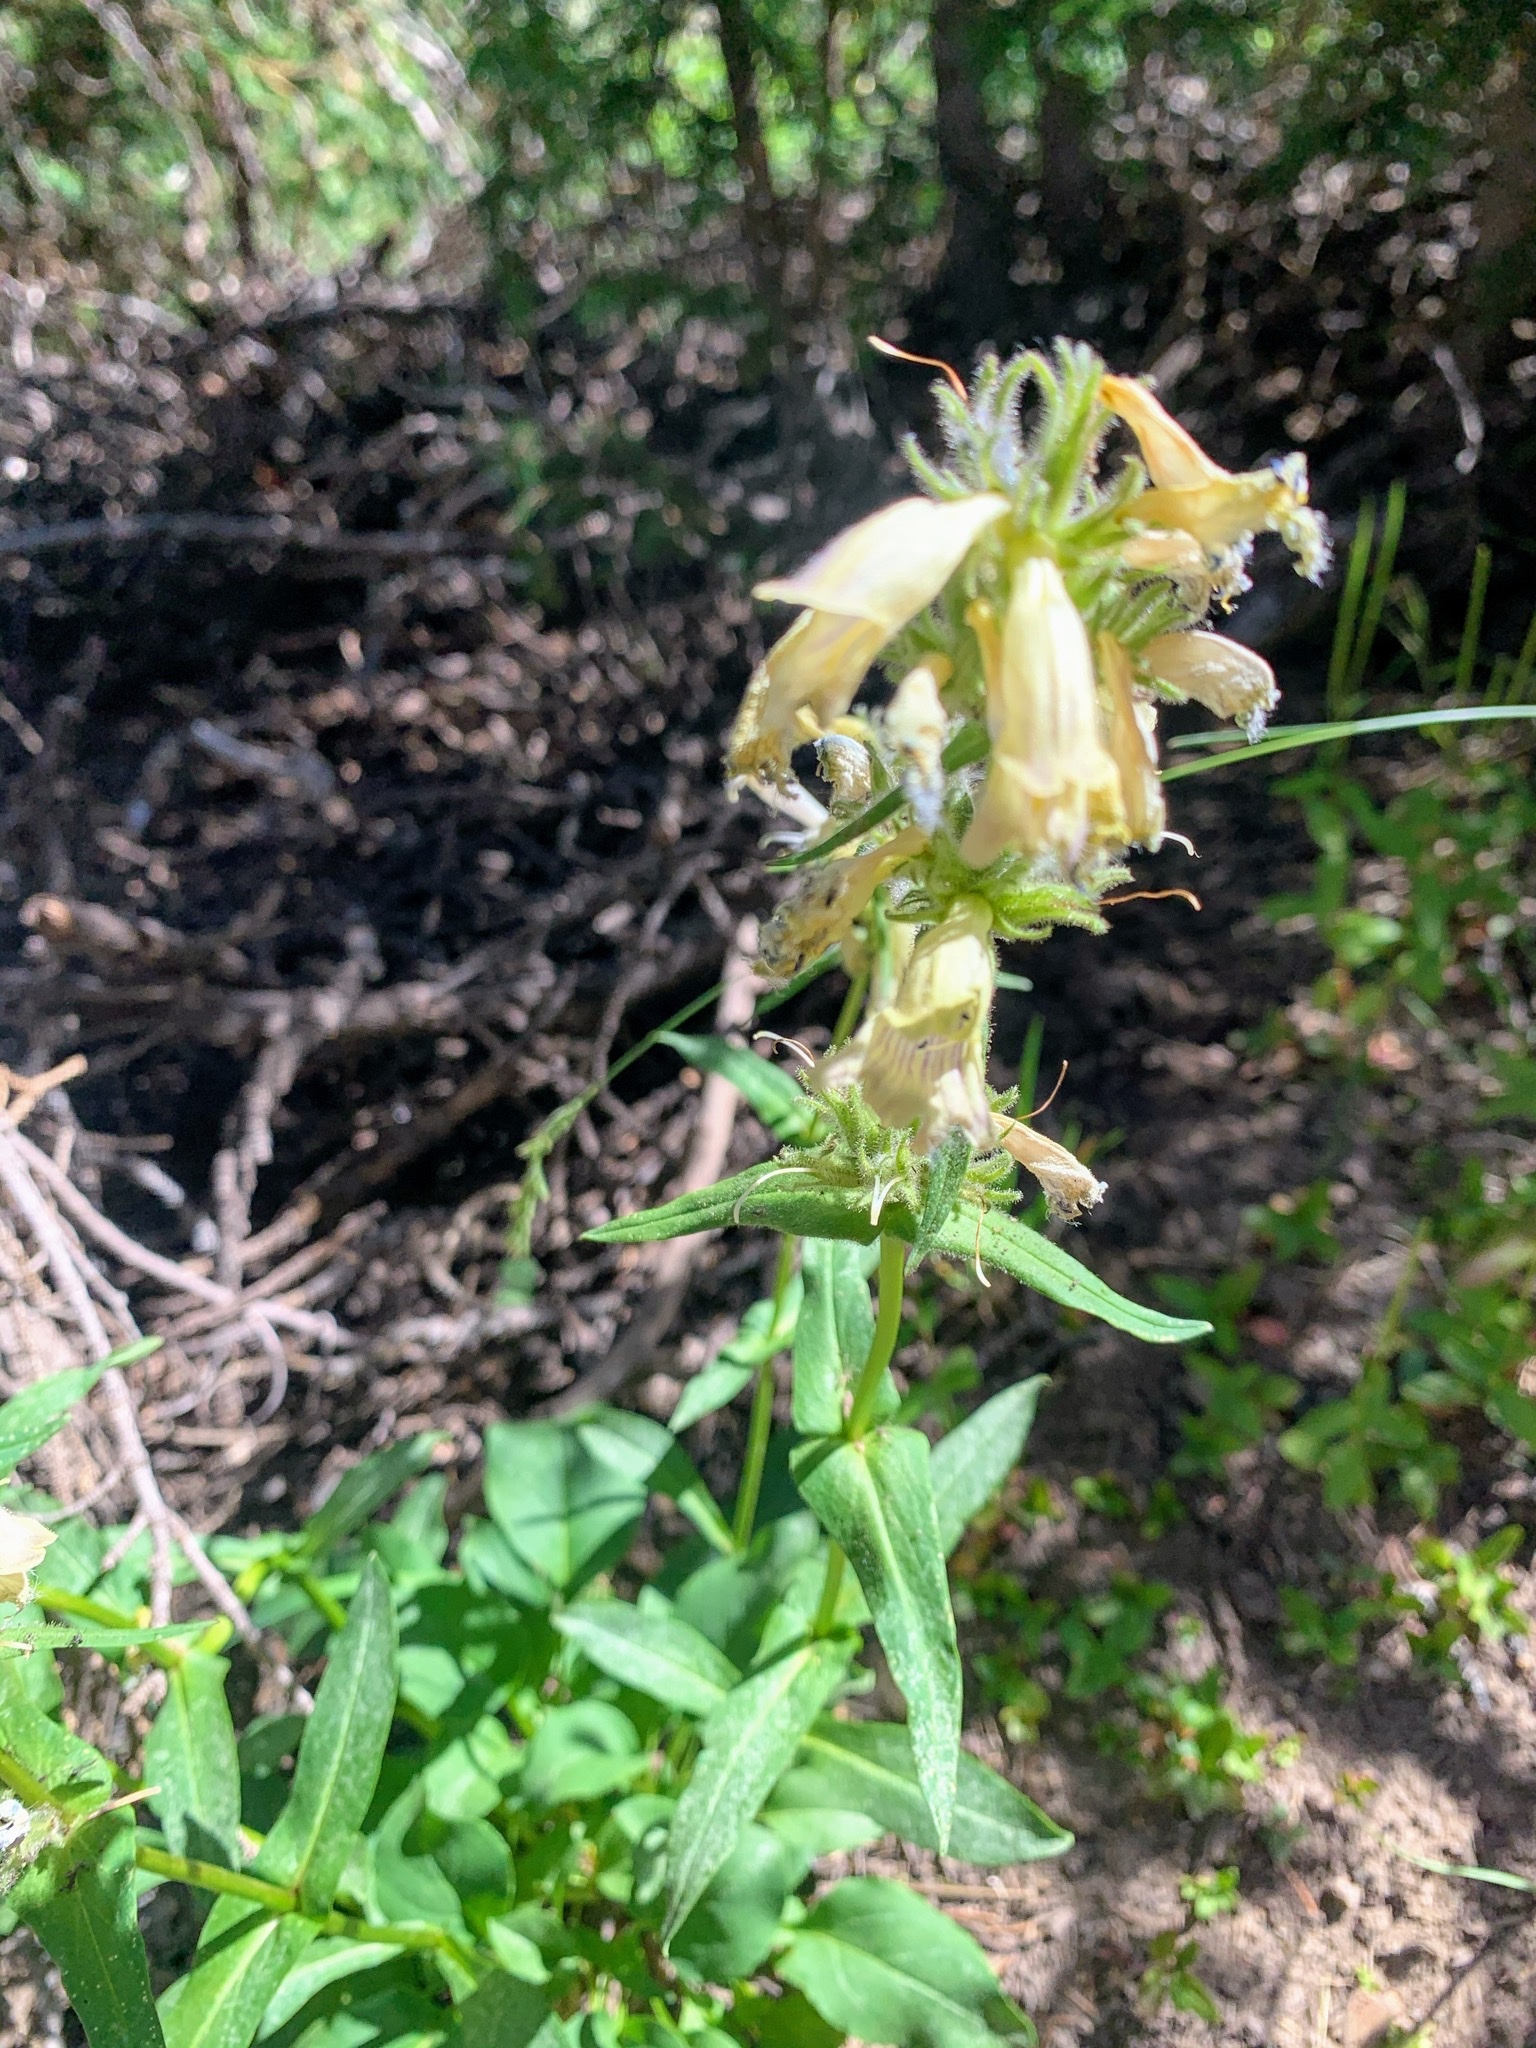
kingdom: Plantae
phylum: Tracheophyta
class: Magnoliopsida
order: Lamiales
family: Plantaginaceae
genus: Penstemon
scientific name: Penstemon whippleanus
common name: Whipple's penstemon
